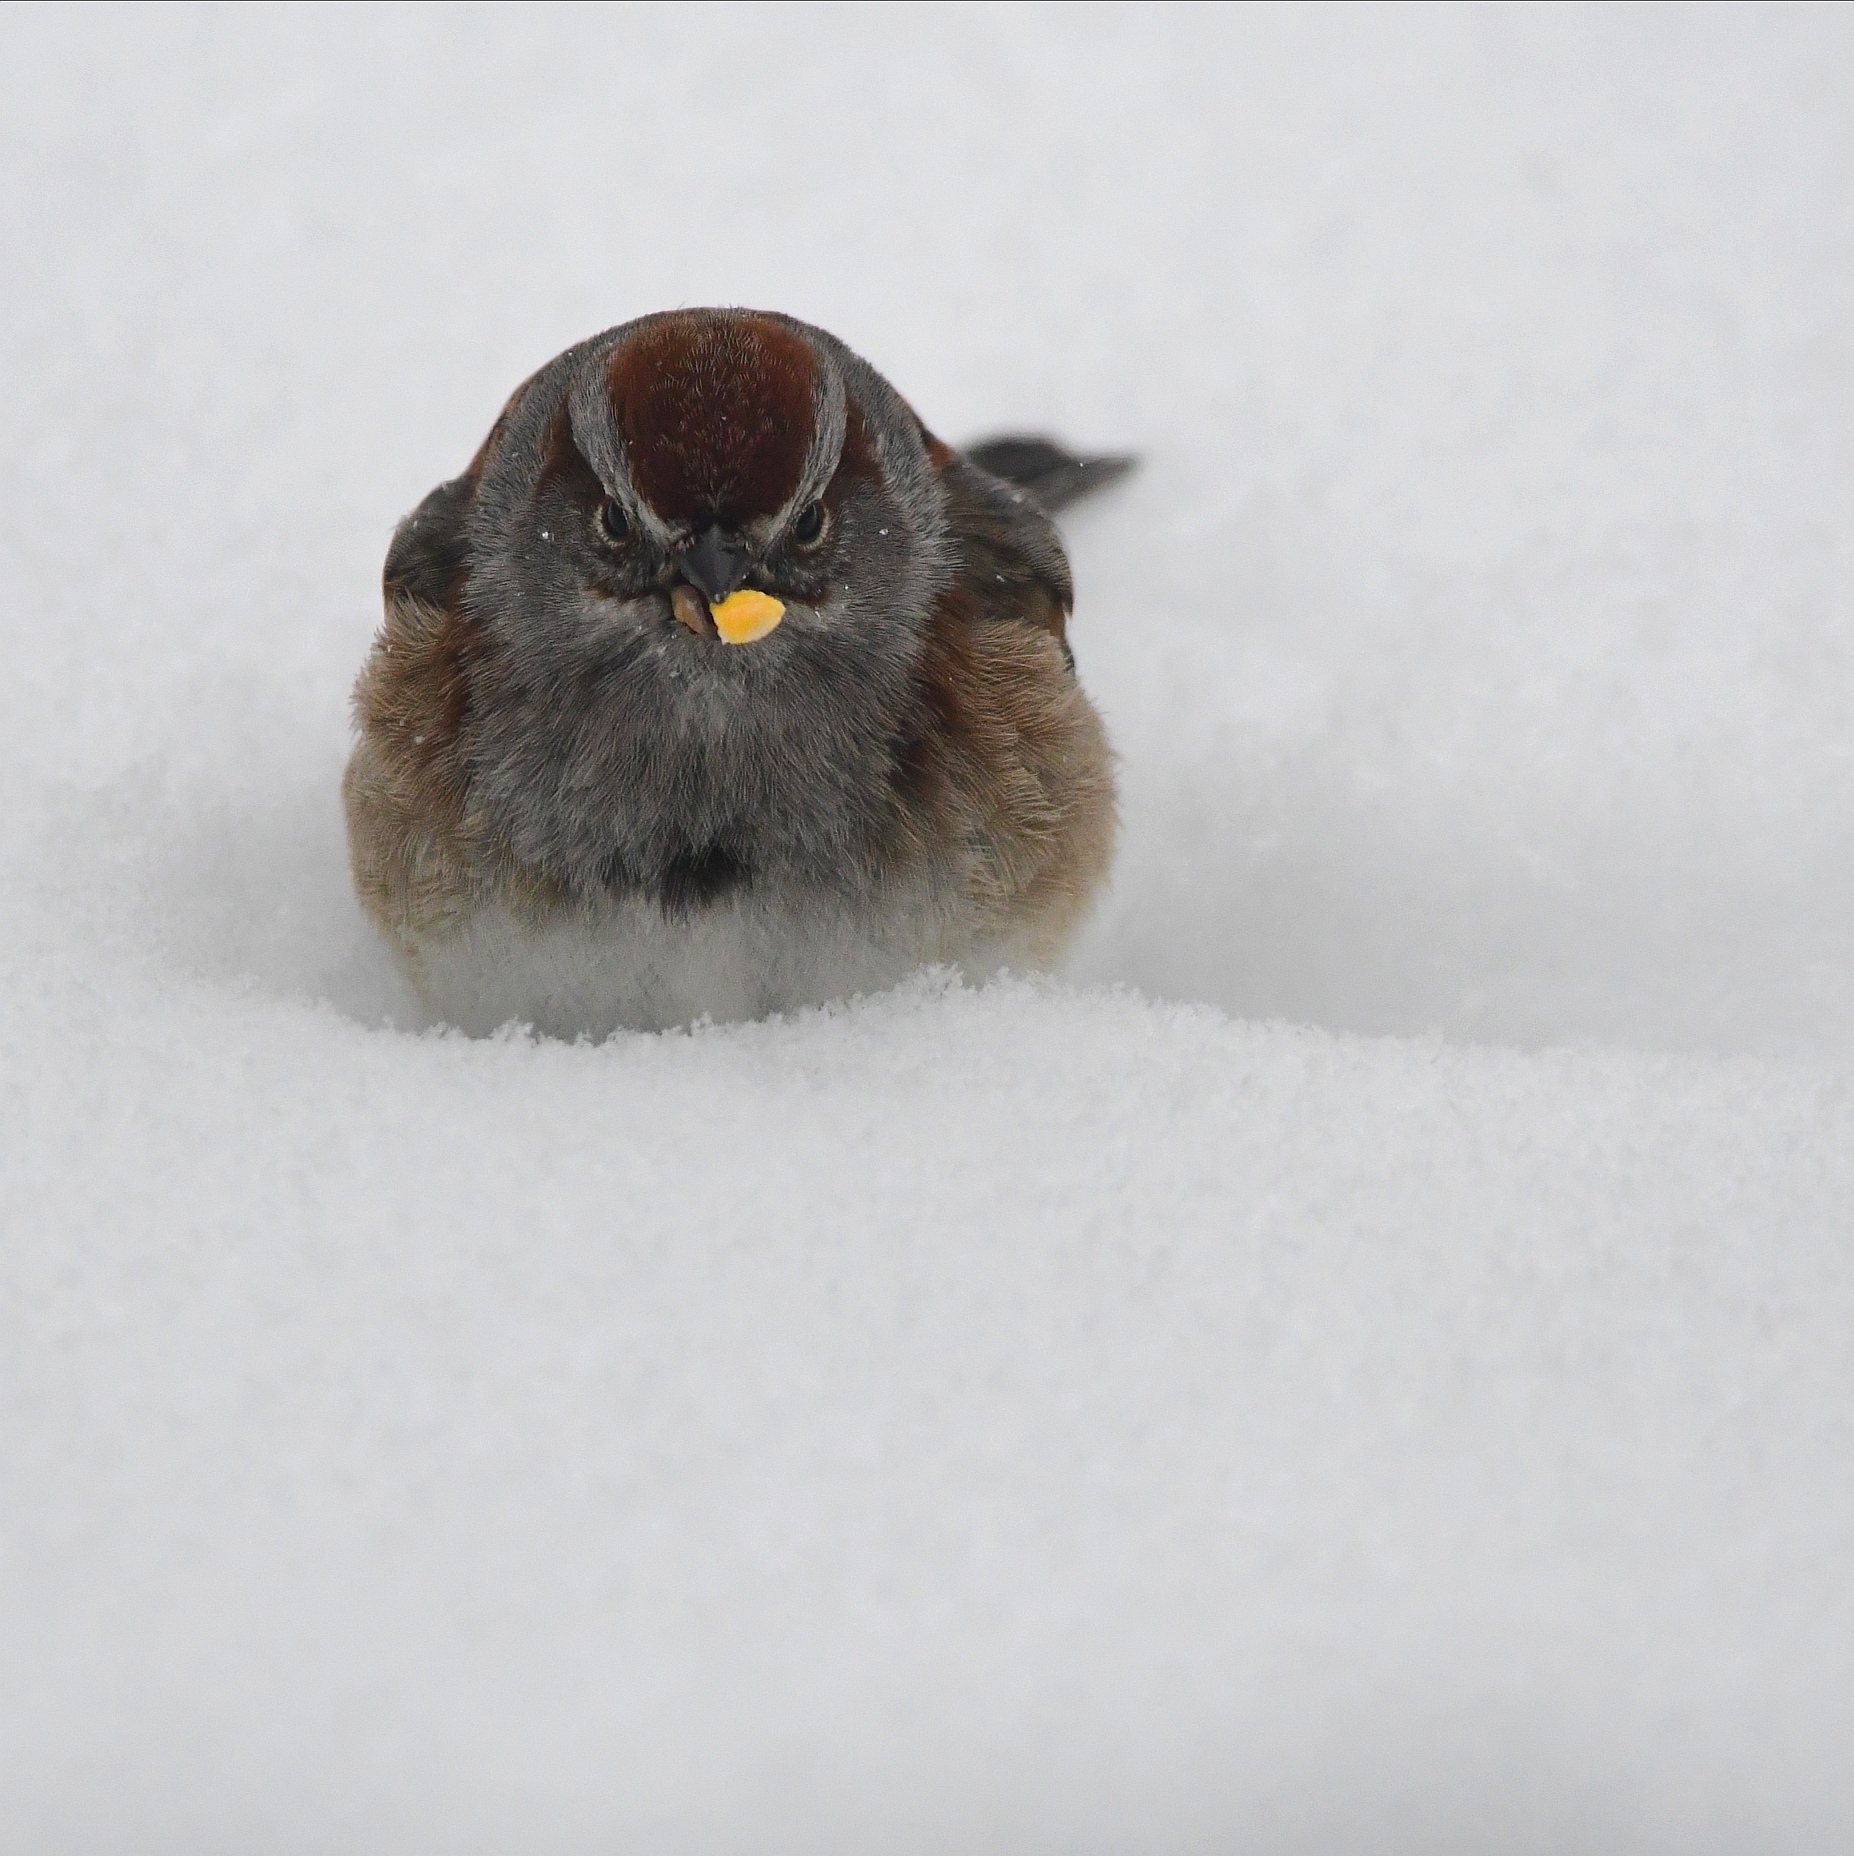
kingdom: Animalia
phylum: Chordata
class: Aves
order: Passeriformes
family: Passerellidae
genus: Spizelloides
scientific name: Spizelloides arborea
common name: American tree sparrow
